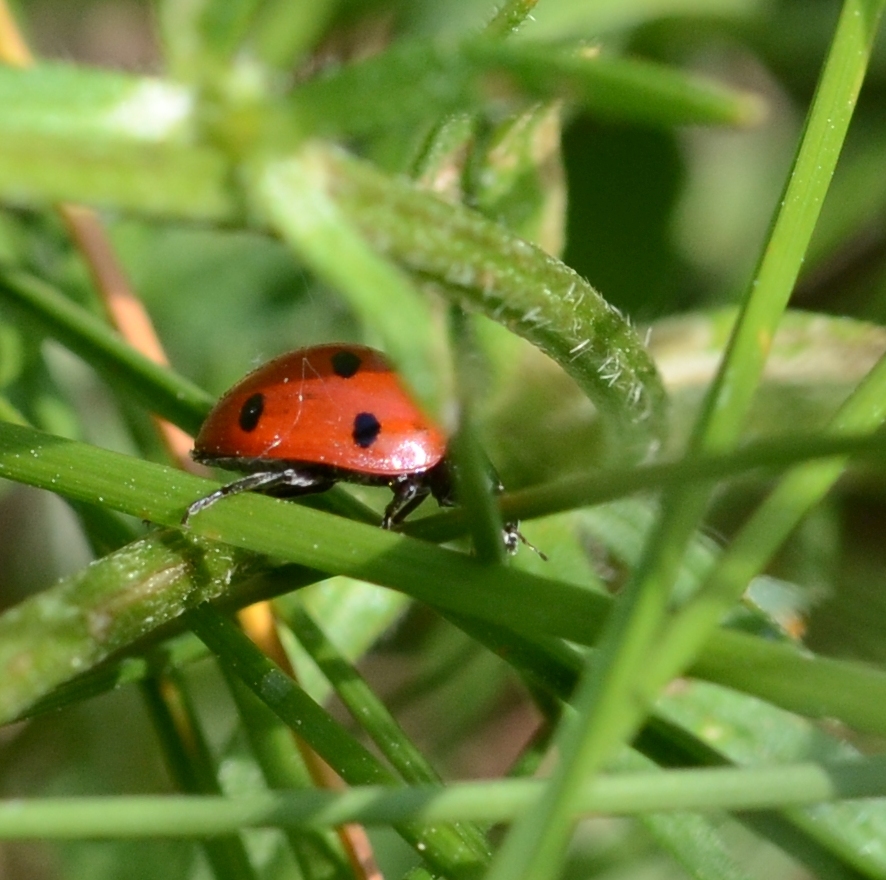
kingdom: Animalia
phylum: Arthropoda
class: Insecta
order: Coleoptera
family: Coccinellidae
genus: Coccinella
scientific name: Coccinella septempunctata
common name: Sevenspotted lady beetle
